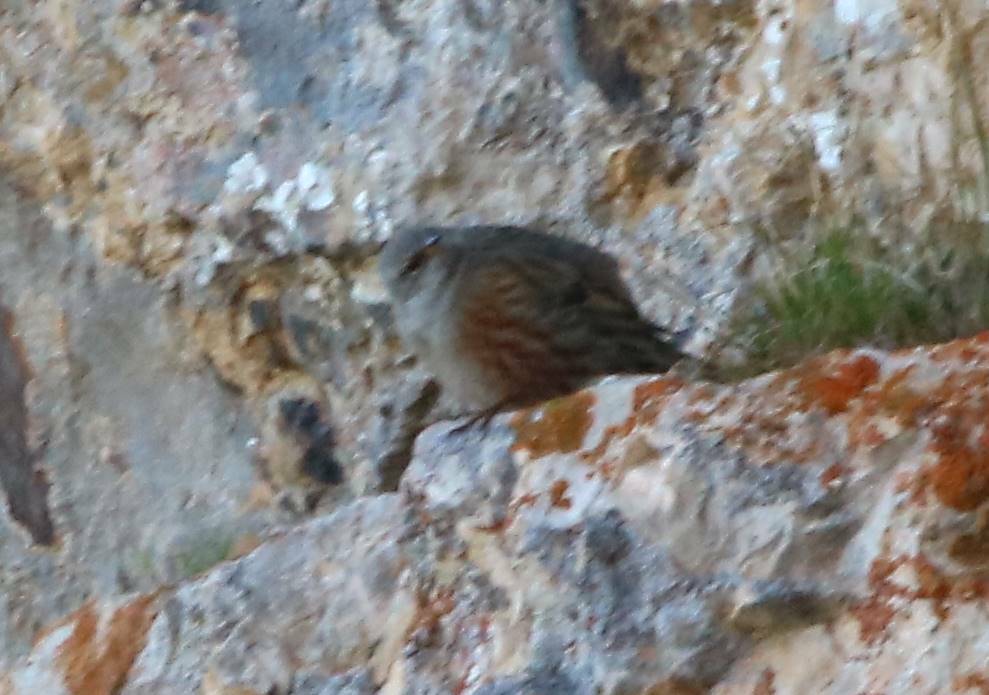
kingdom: Animalia
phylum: Chordata
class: Aves
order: Passeriformes
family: Prunellidae
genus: Prunella
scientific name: Prunella collaris
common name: Alpine accentor
